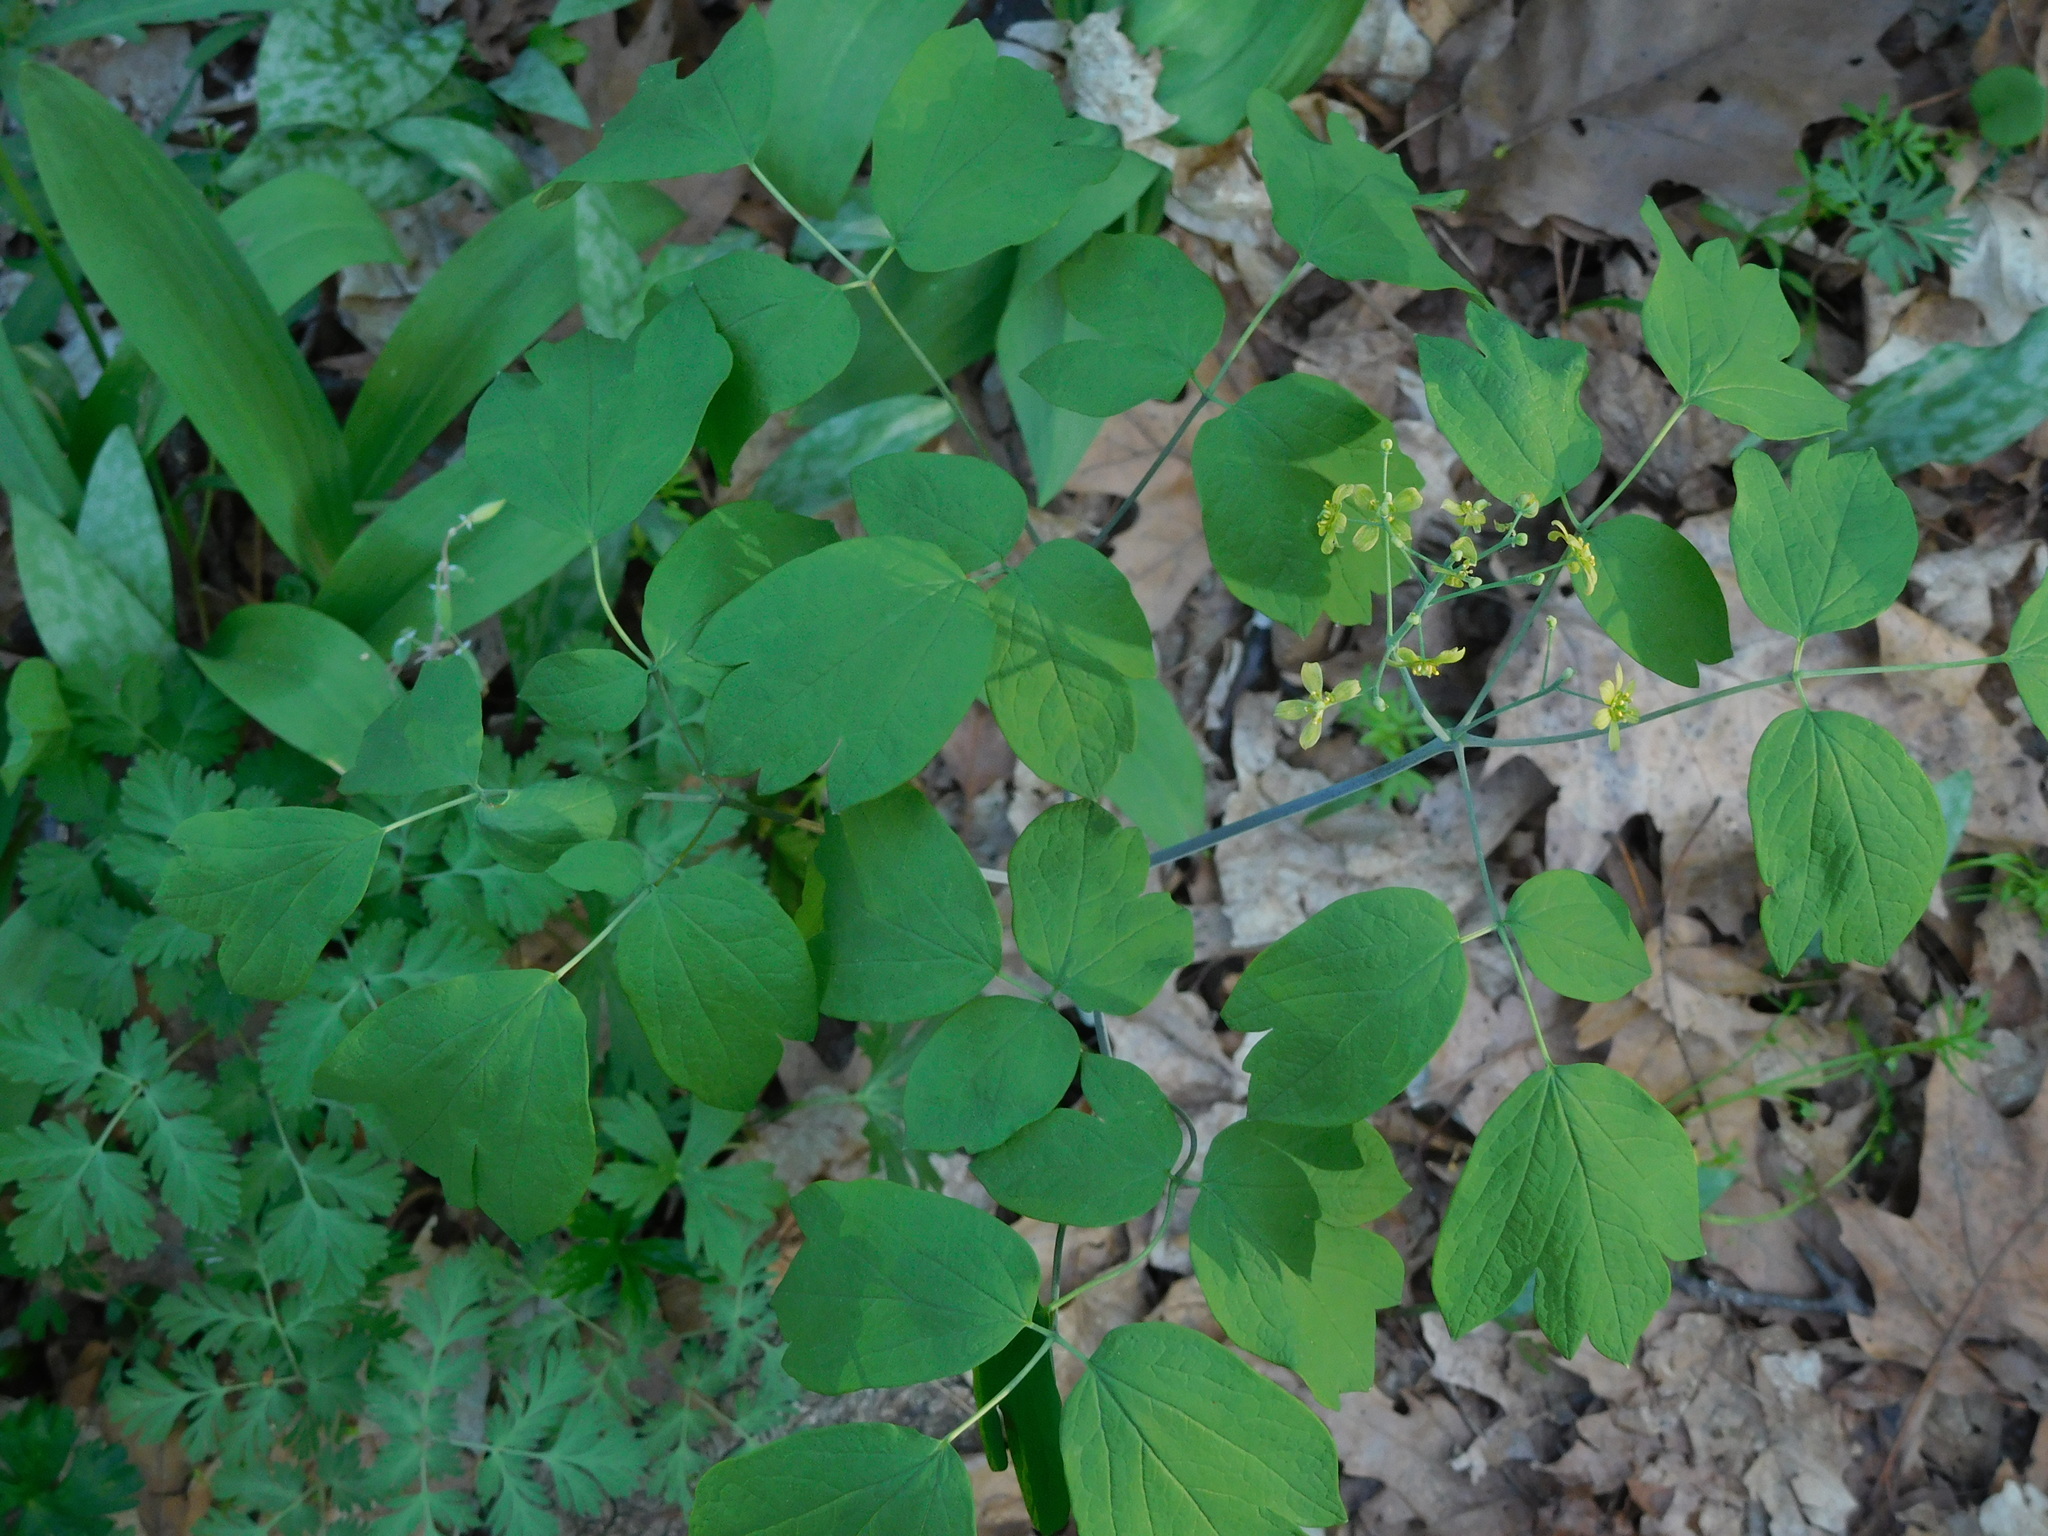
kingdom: Plantae
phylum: Tracheophyta
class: Magnoliopsida
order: Ranunculales
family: Berberidaceae
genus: Caulophyllum
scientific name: Caulophyllum thalictroides
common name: Blue cohosh
